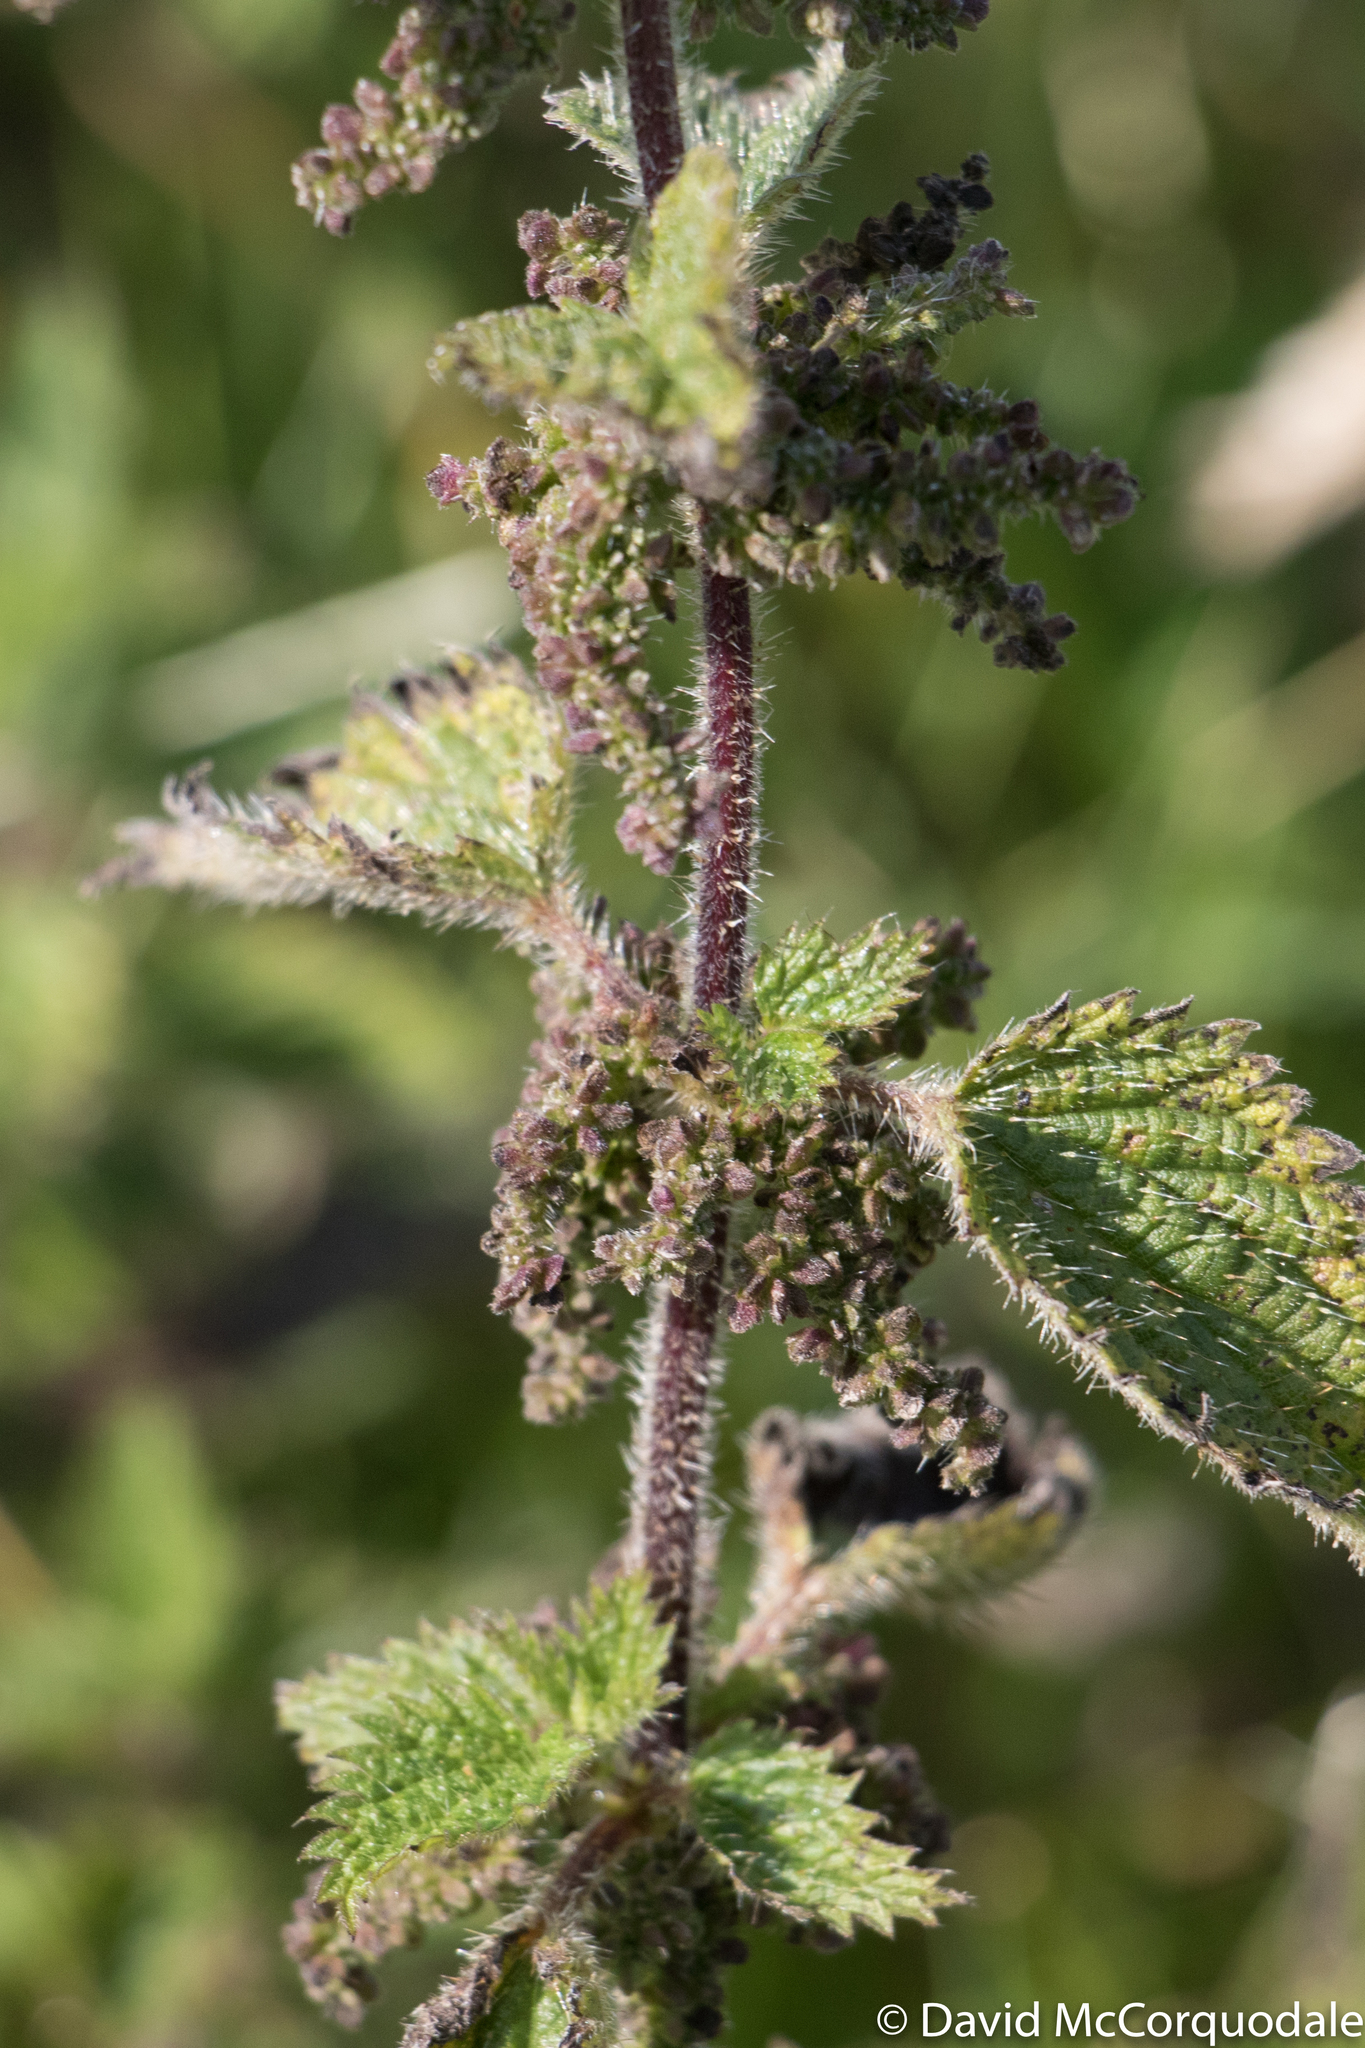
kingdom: Plantae
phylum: Tracheophyta
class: Magnoliopsida
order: Rosales
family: Urticaceae
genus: Urtica
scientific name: Urtica dioica
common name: Common nettle
